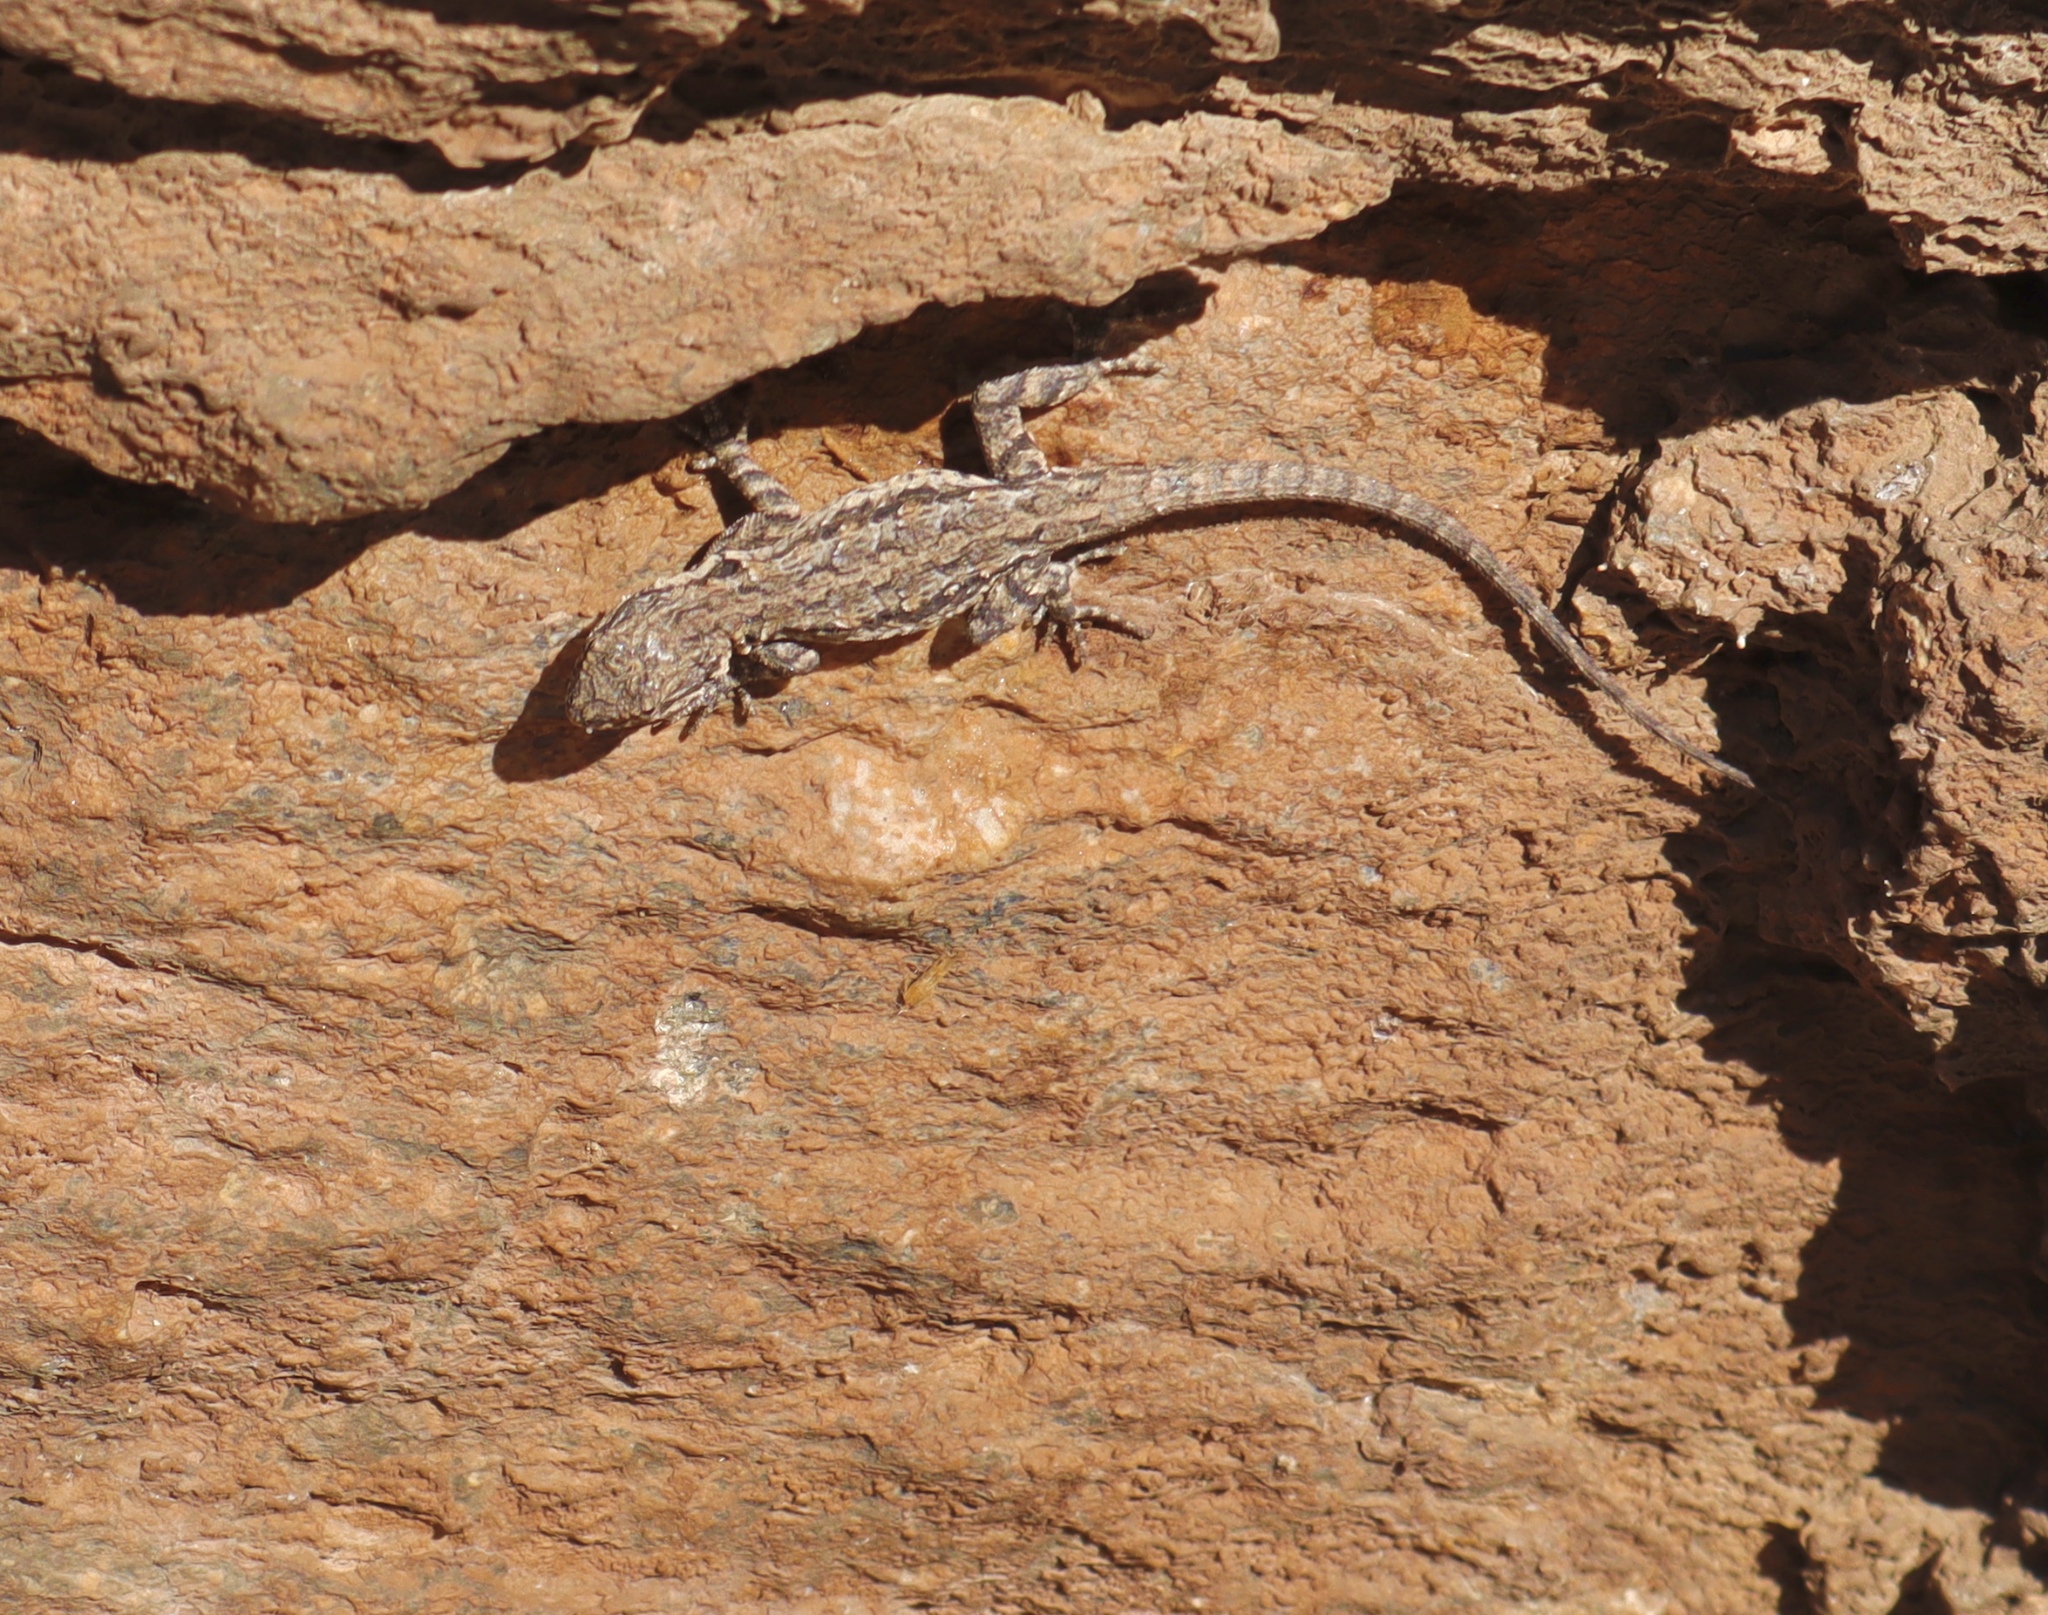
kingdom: Animalia
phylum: Chordata
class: Squamata
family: Phrynosomatidae
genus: Urosaurus
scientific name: Urosaurus ornatus
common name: Ornate tree lizard
